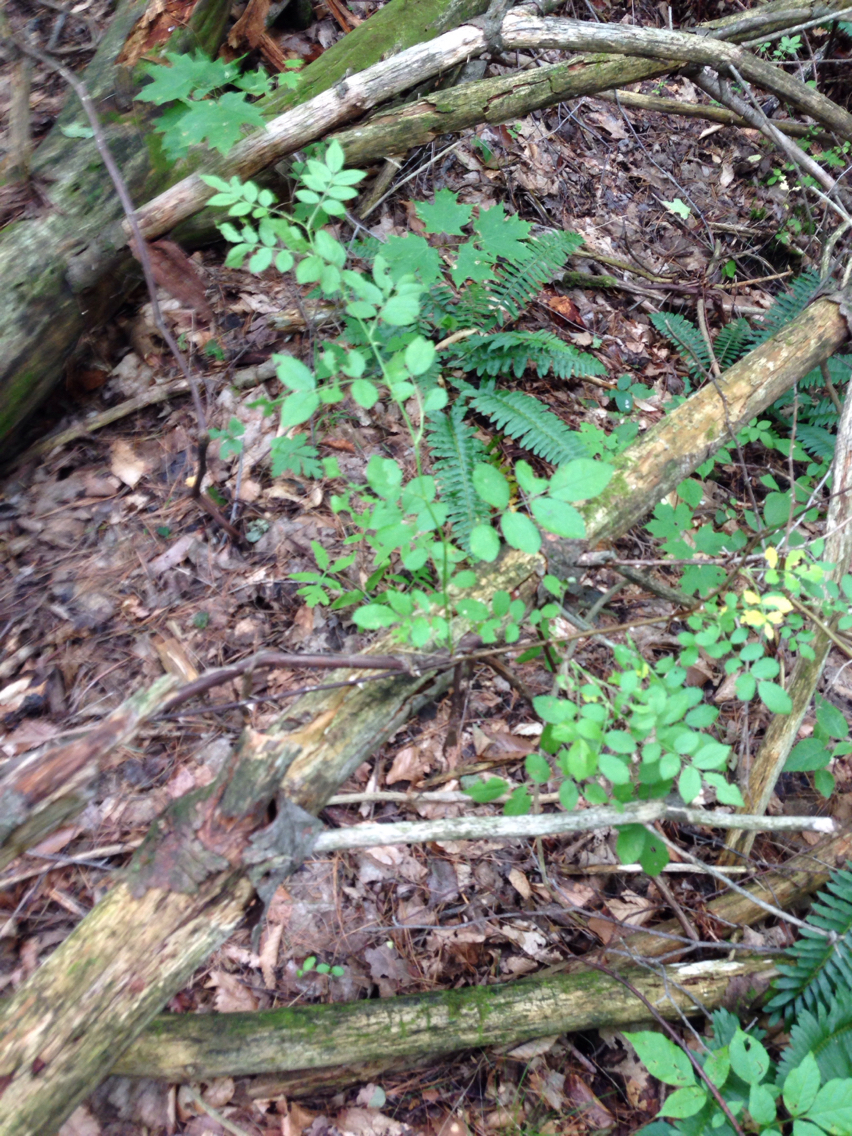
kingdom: Plantae
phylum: Tracheophyta
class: Magnoliopsida
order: Rosales
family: Rosaceae
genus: Rosa
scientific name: Rosa multiflora
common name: Multiflora rose
